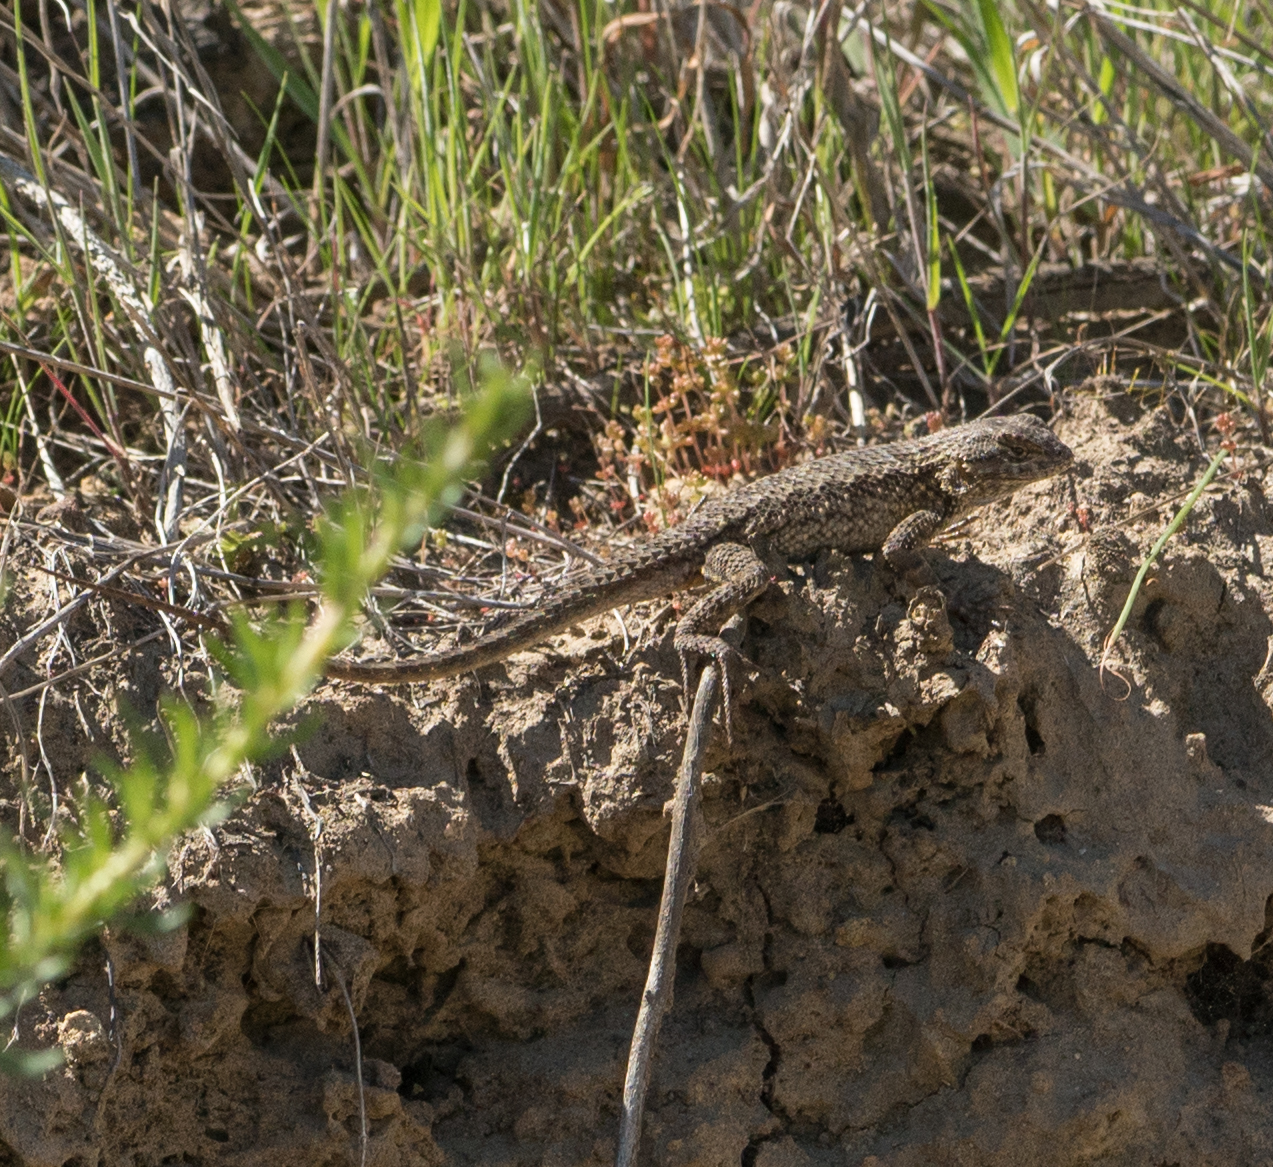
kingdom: Animalia
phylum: Chordata
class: Squamata
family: Phrynosomatidae
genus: Sceloporus
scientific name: Sceloporus occidentalis
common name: Western fence lizard
